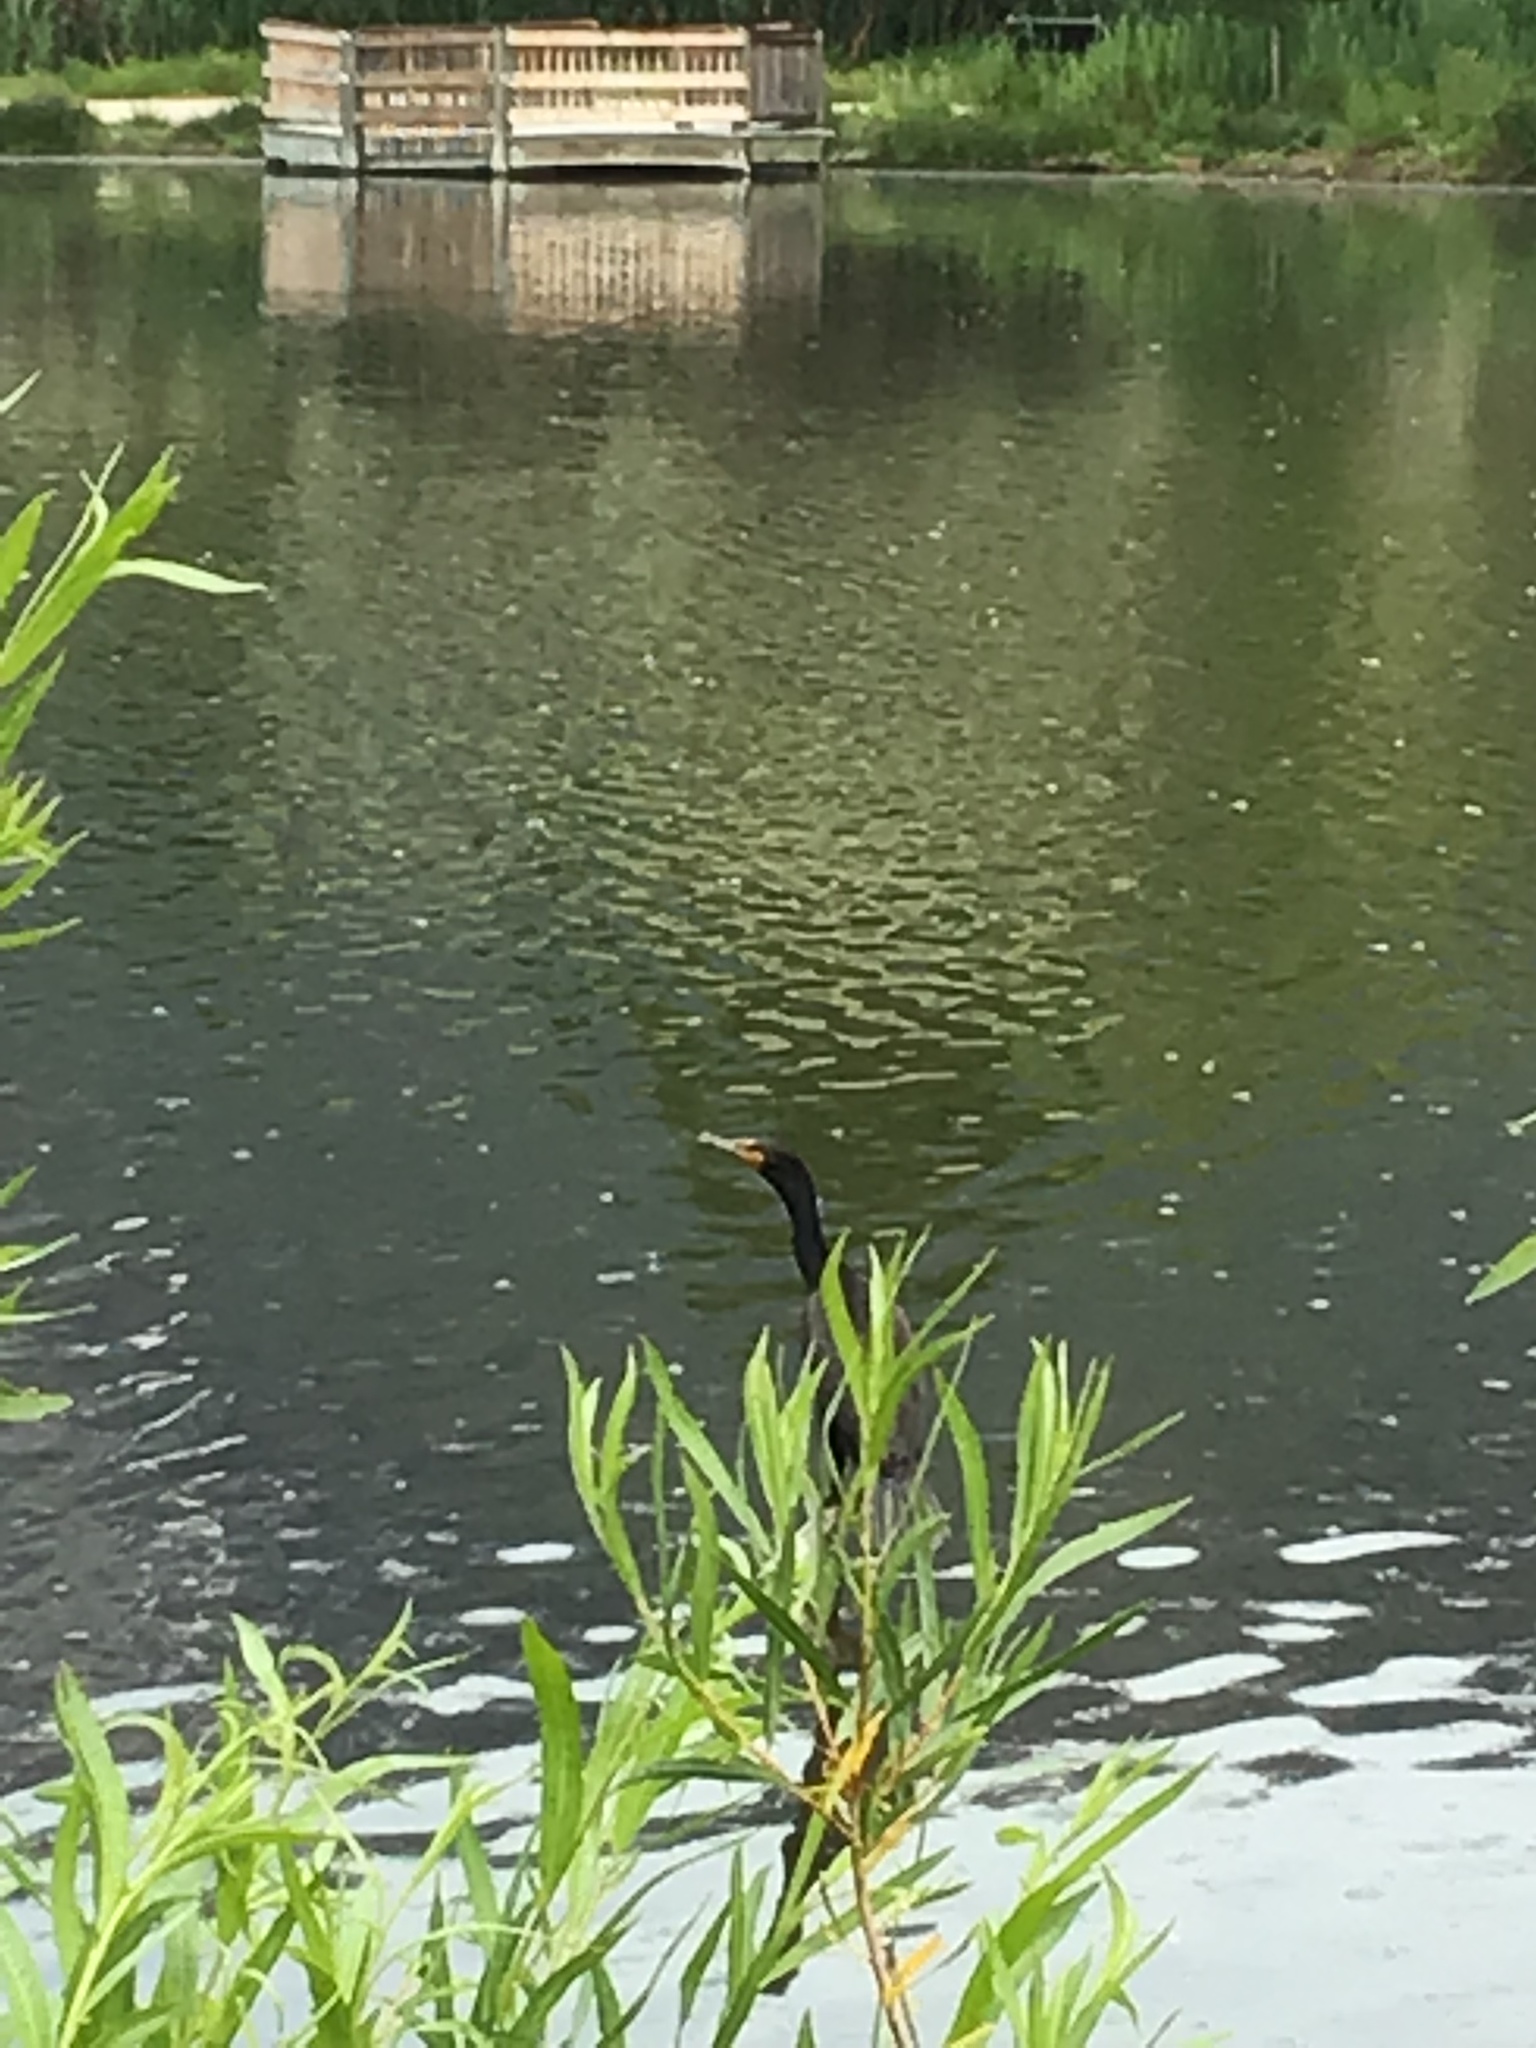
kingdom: Animalia
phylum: Chordata
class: Aves
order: Suliformes
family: Phalacrocoracidae
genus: Phalacrocorax
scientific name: Phalacrocorax auritus
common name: Double-crested cormorant
